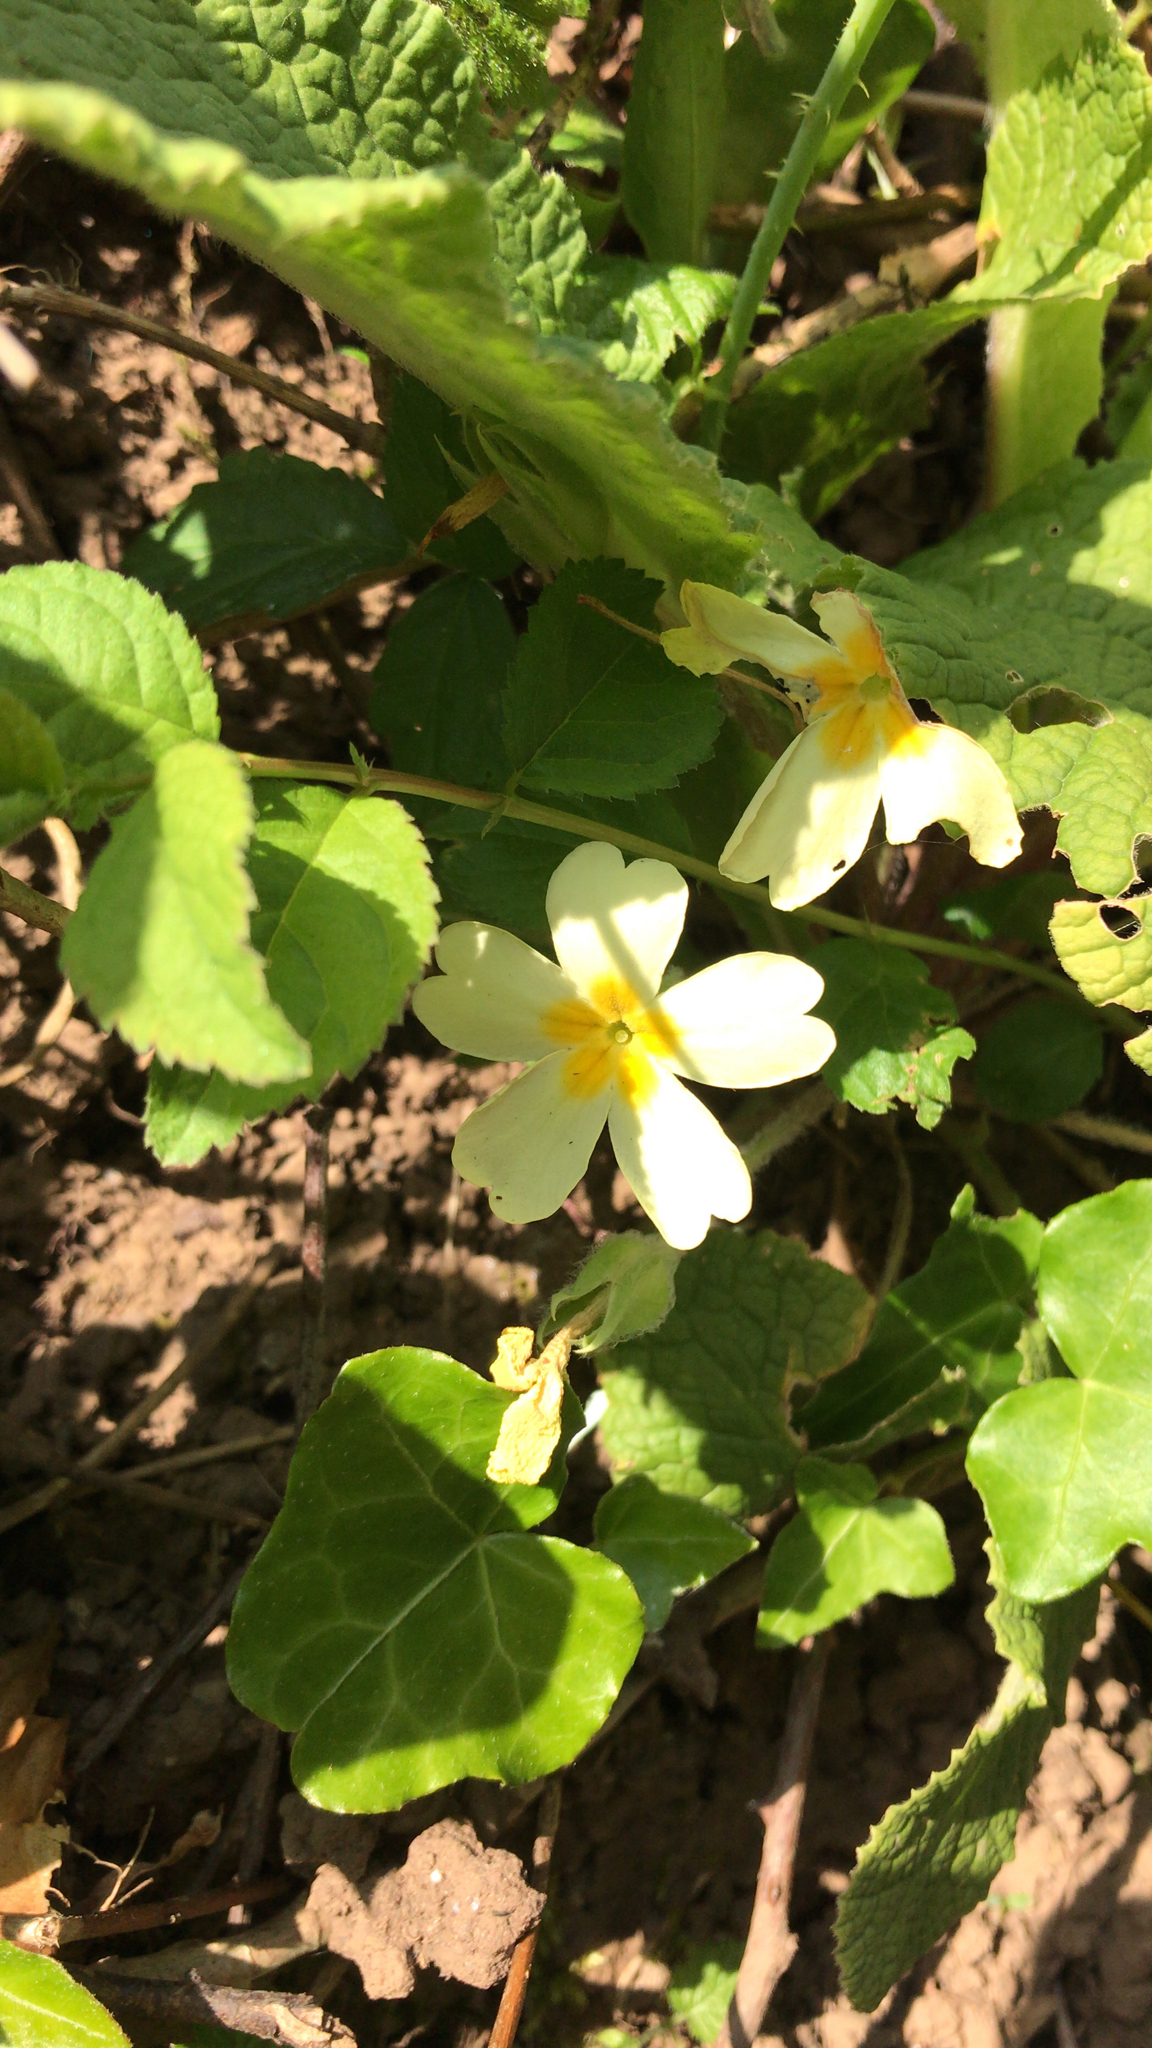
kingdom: Plantae
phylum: Tracheophyta
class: Magnoliopsida
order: Ericales
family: Primulaceae
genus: Primula
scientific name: Primula vulgaris
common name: Primrose
